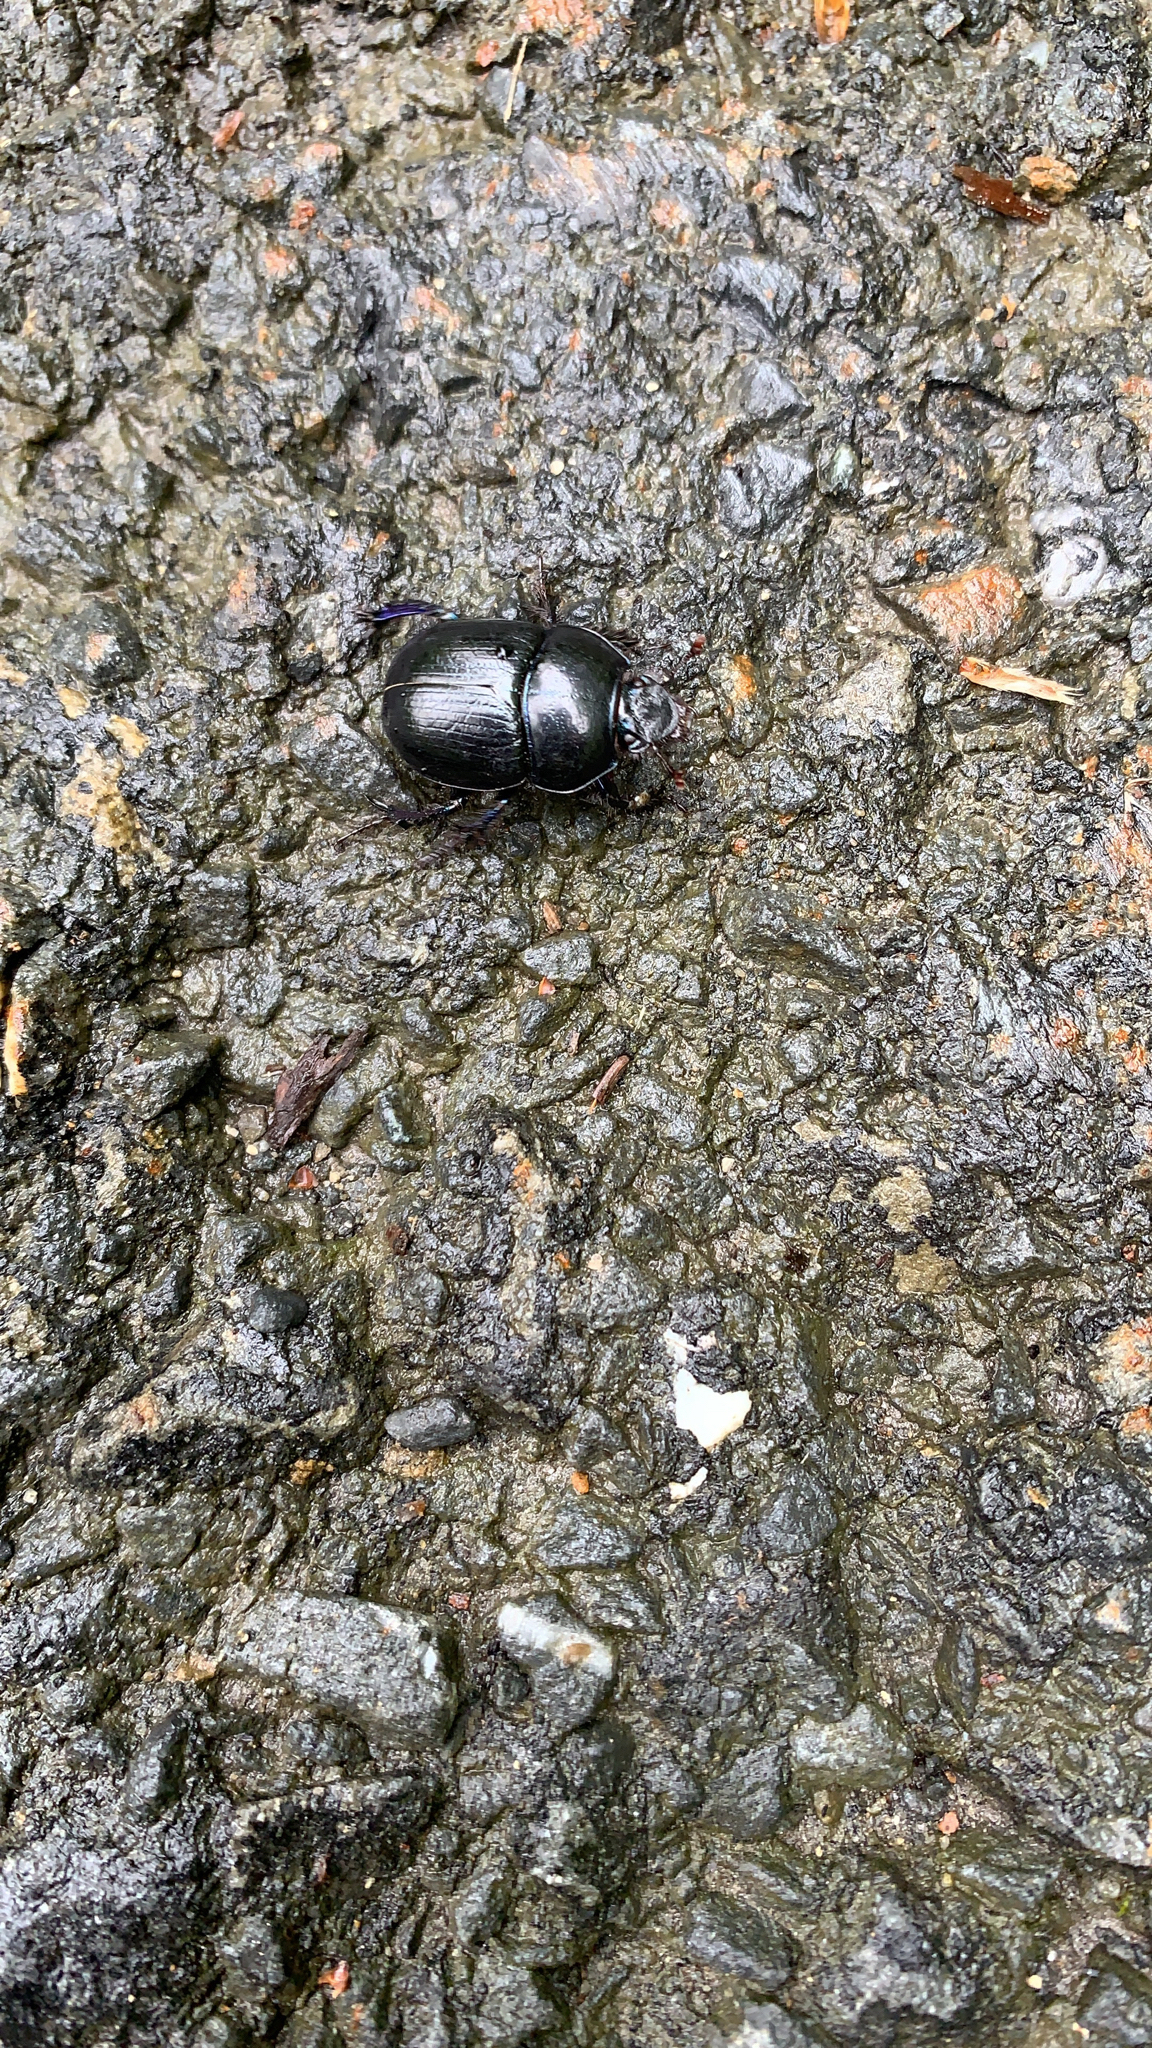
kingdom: Animalia
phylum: Arthropoda
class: Insecta
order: Coleoptera
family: Geotrupidae
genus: Anoplotrupes
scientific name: Anoplotrupes stercorosus
